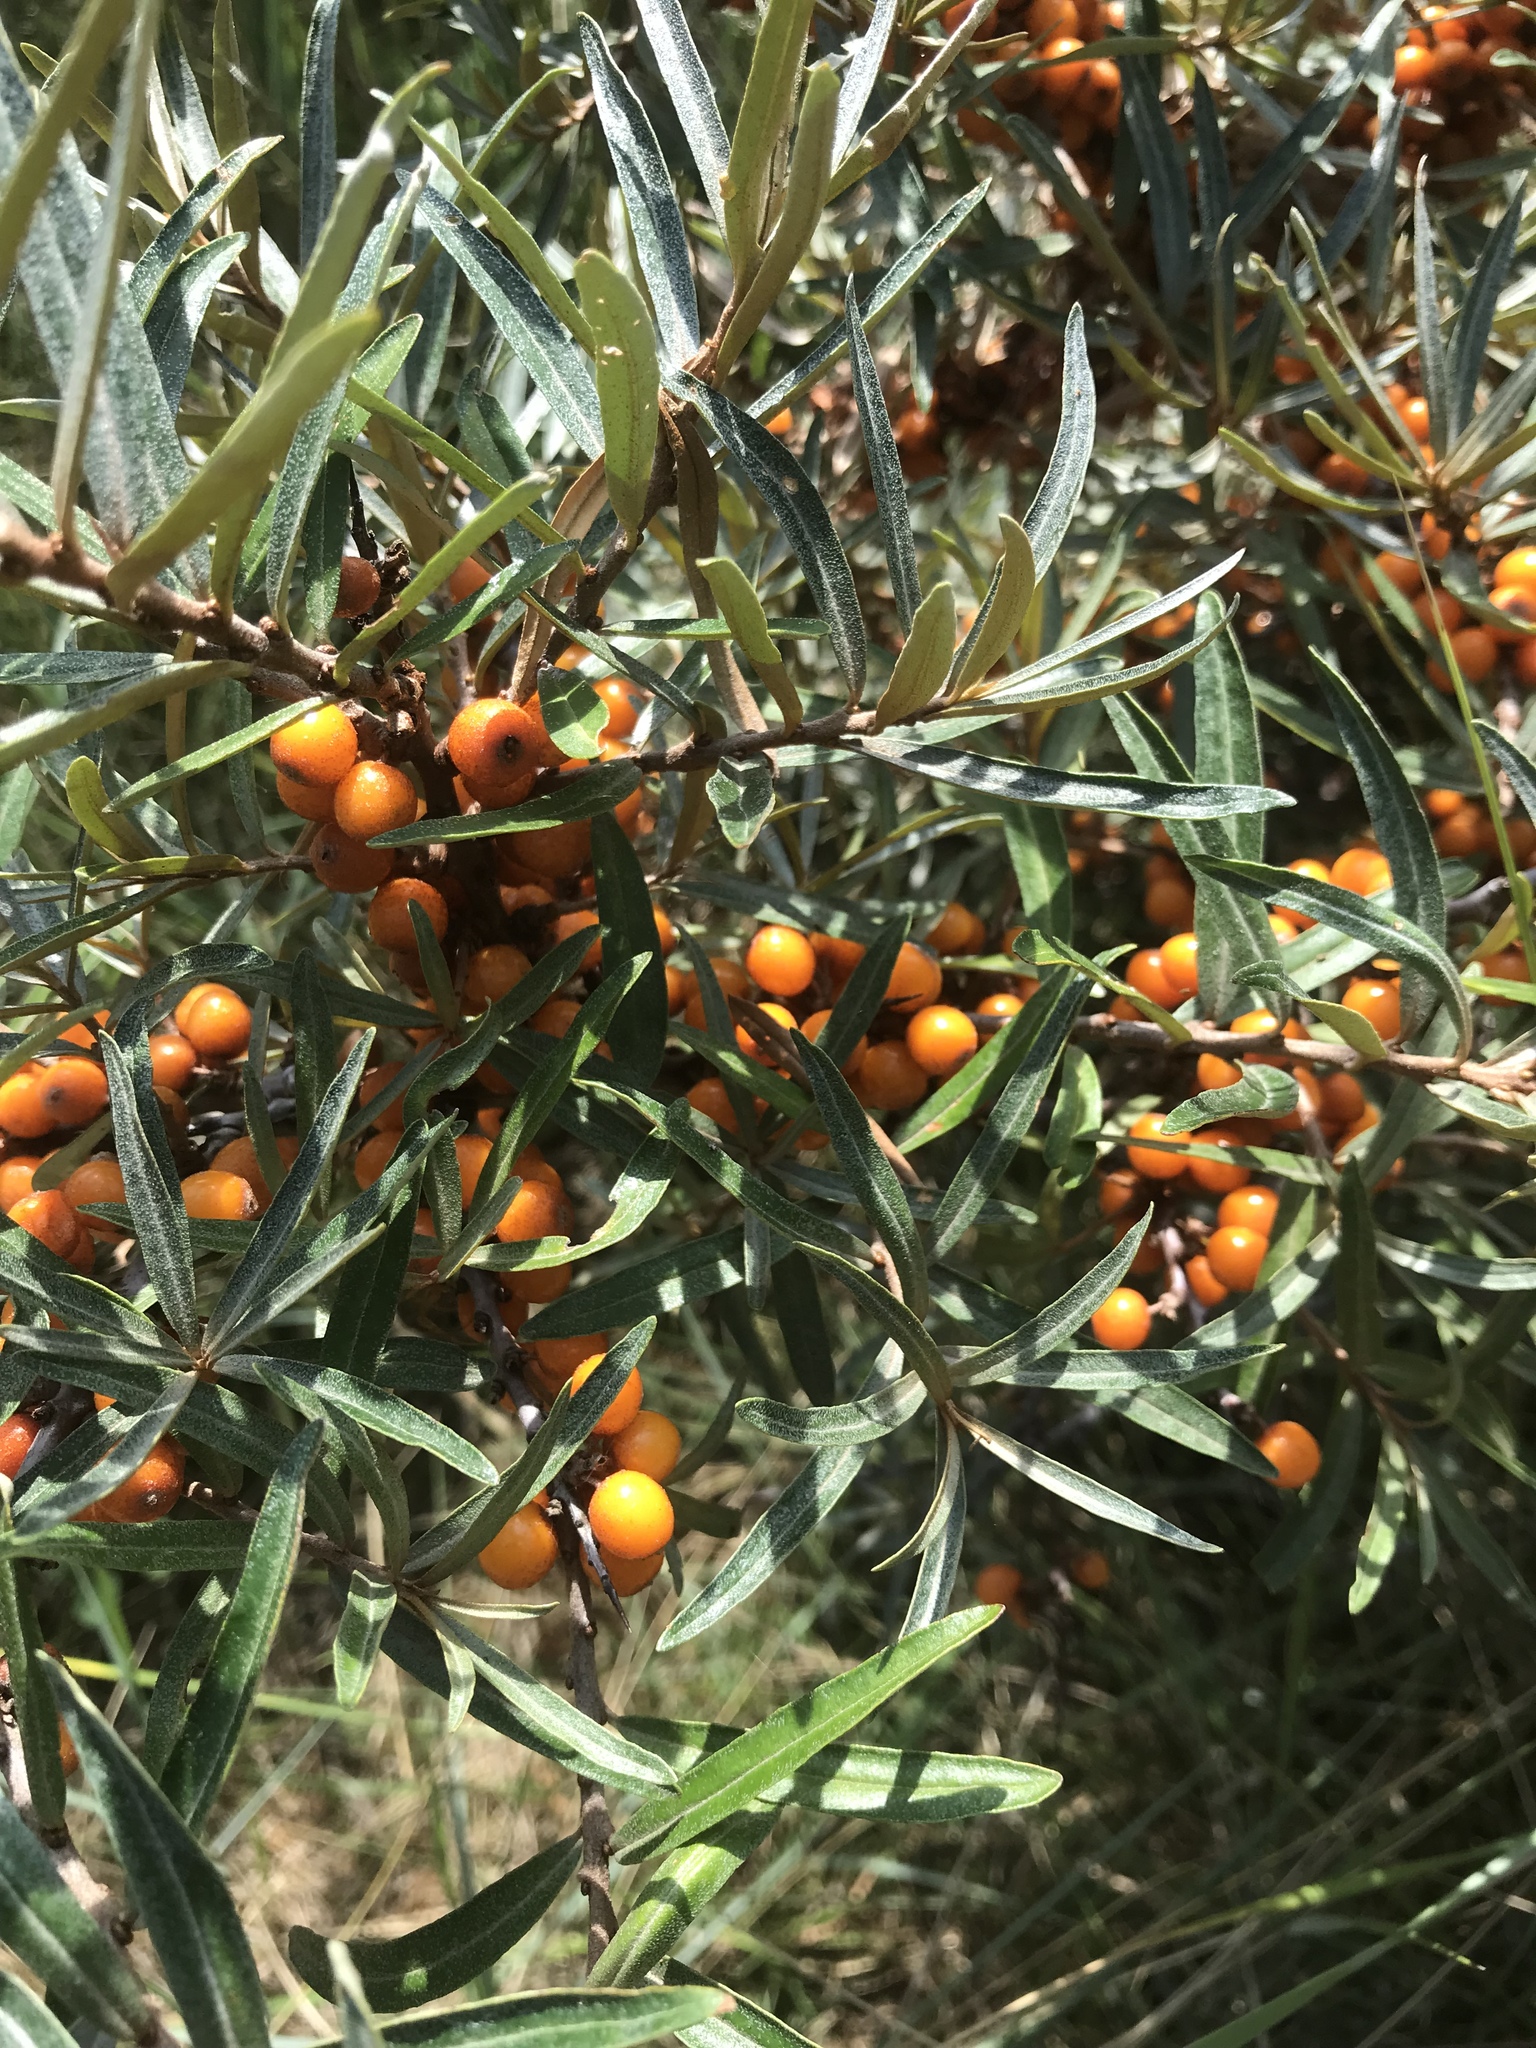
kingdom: Plantae
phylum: Tracheophyta
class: Magnoliopsida
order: Rosales
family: Elaeagnaceae
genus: Hippophae
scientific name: Hippophae rhamnoides
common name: Sea-buckthorn
